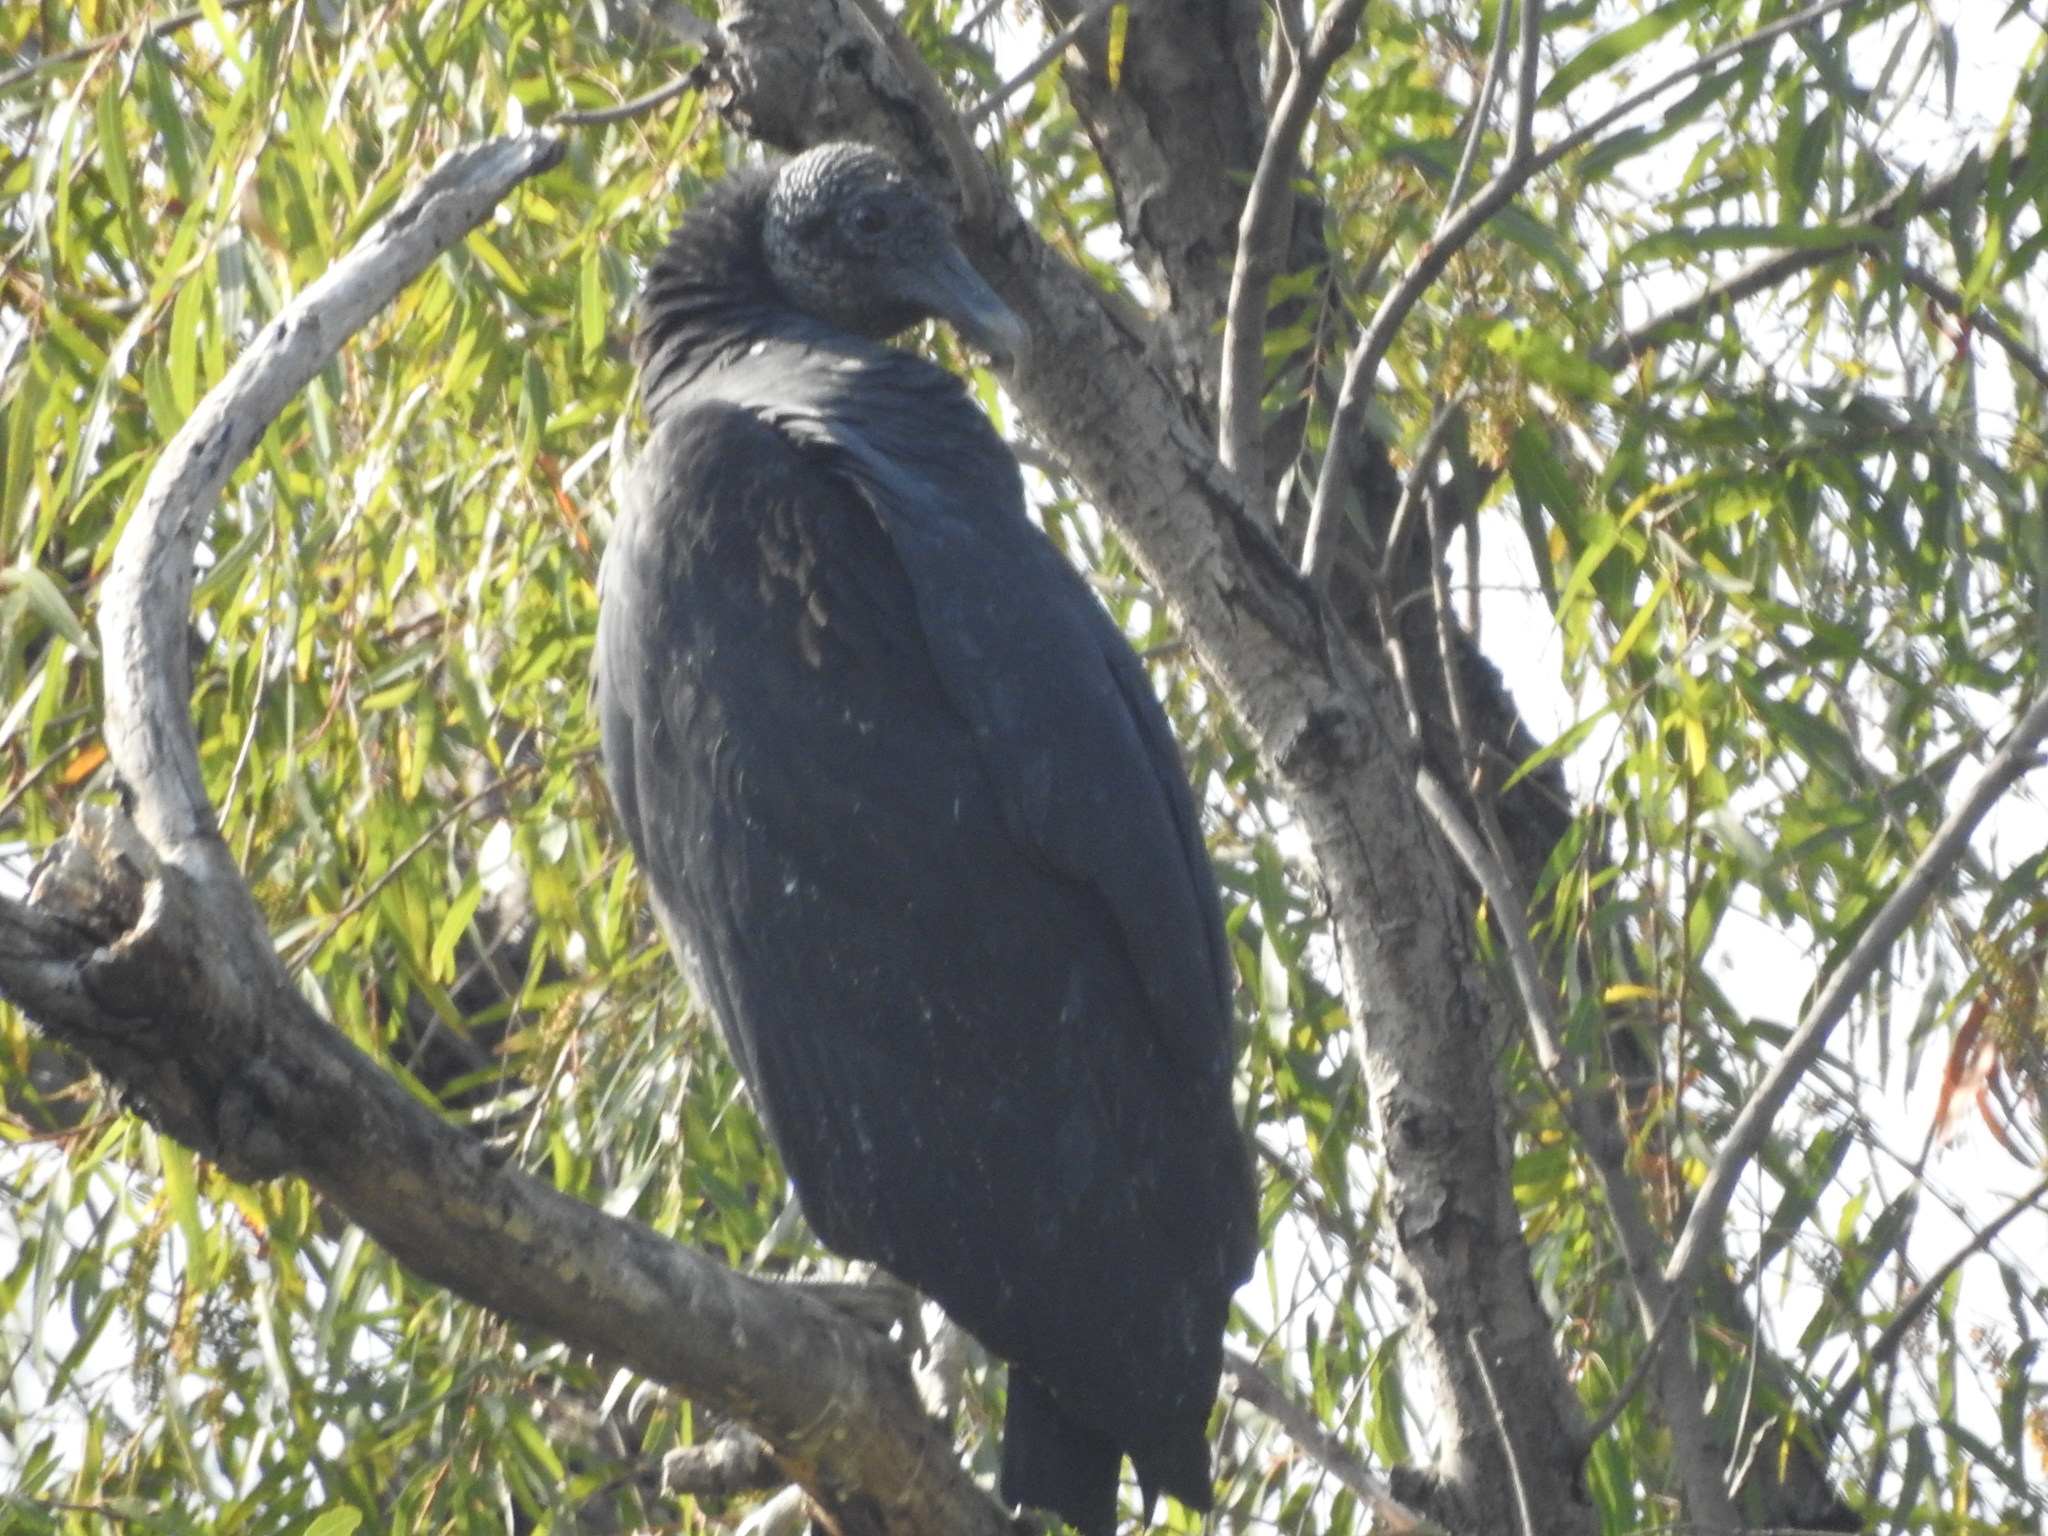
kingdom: Animalia
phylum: Chordata
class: Aves
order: Accipitriformes
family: Cathartidae
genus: Coragyps
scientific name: Coragyps atratus
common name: Black vulture
